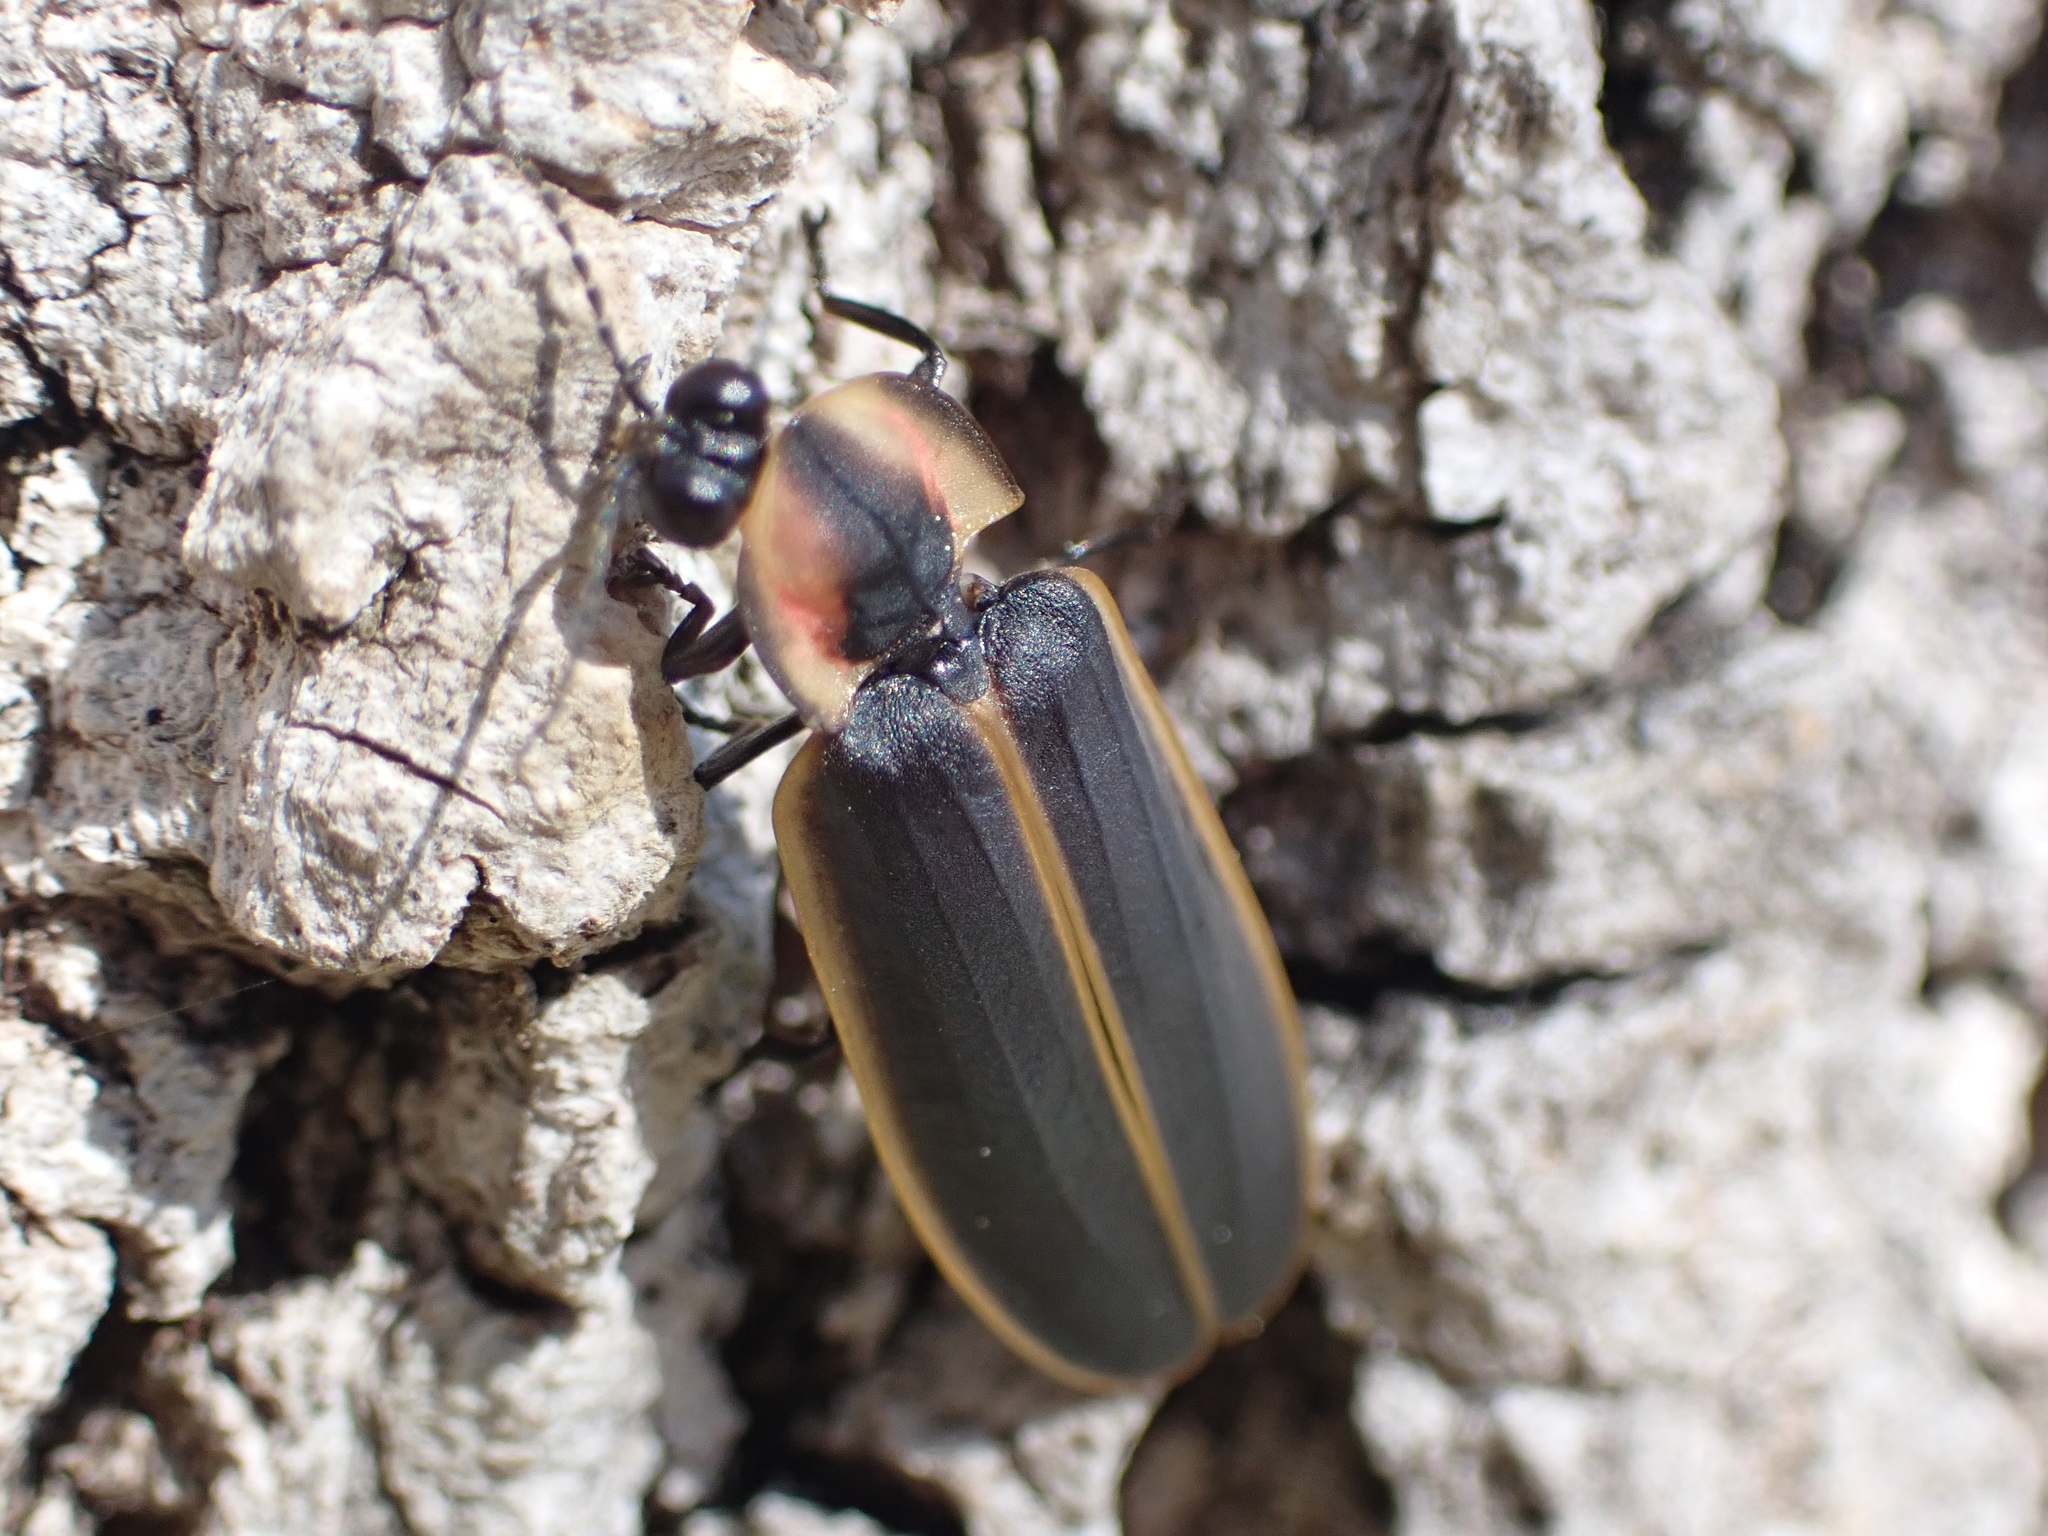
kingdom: Animalia
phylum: Arthropoda
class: Insecta
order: Coleoptera
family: Lampyridae
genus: Pyractomena
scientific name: Pyractomena borealis
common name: Northern firefly
